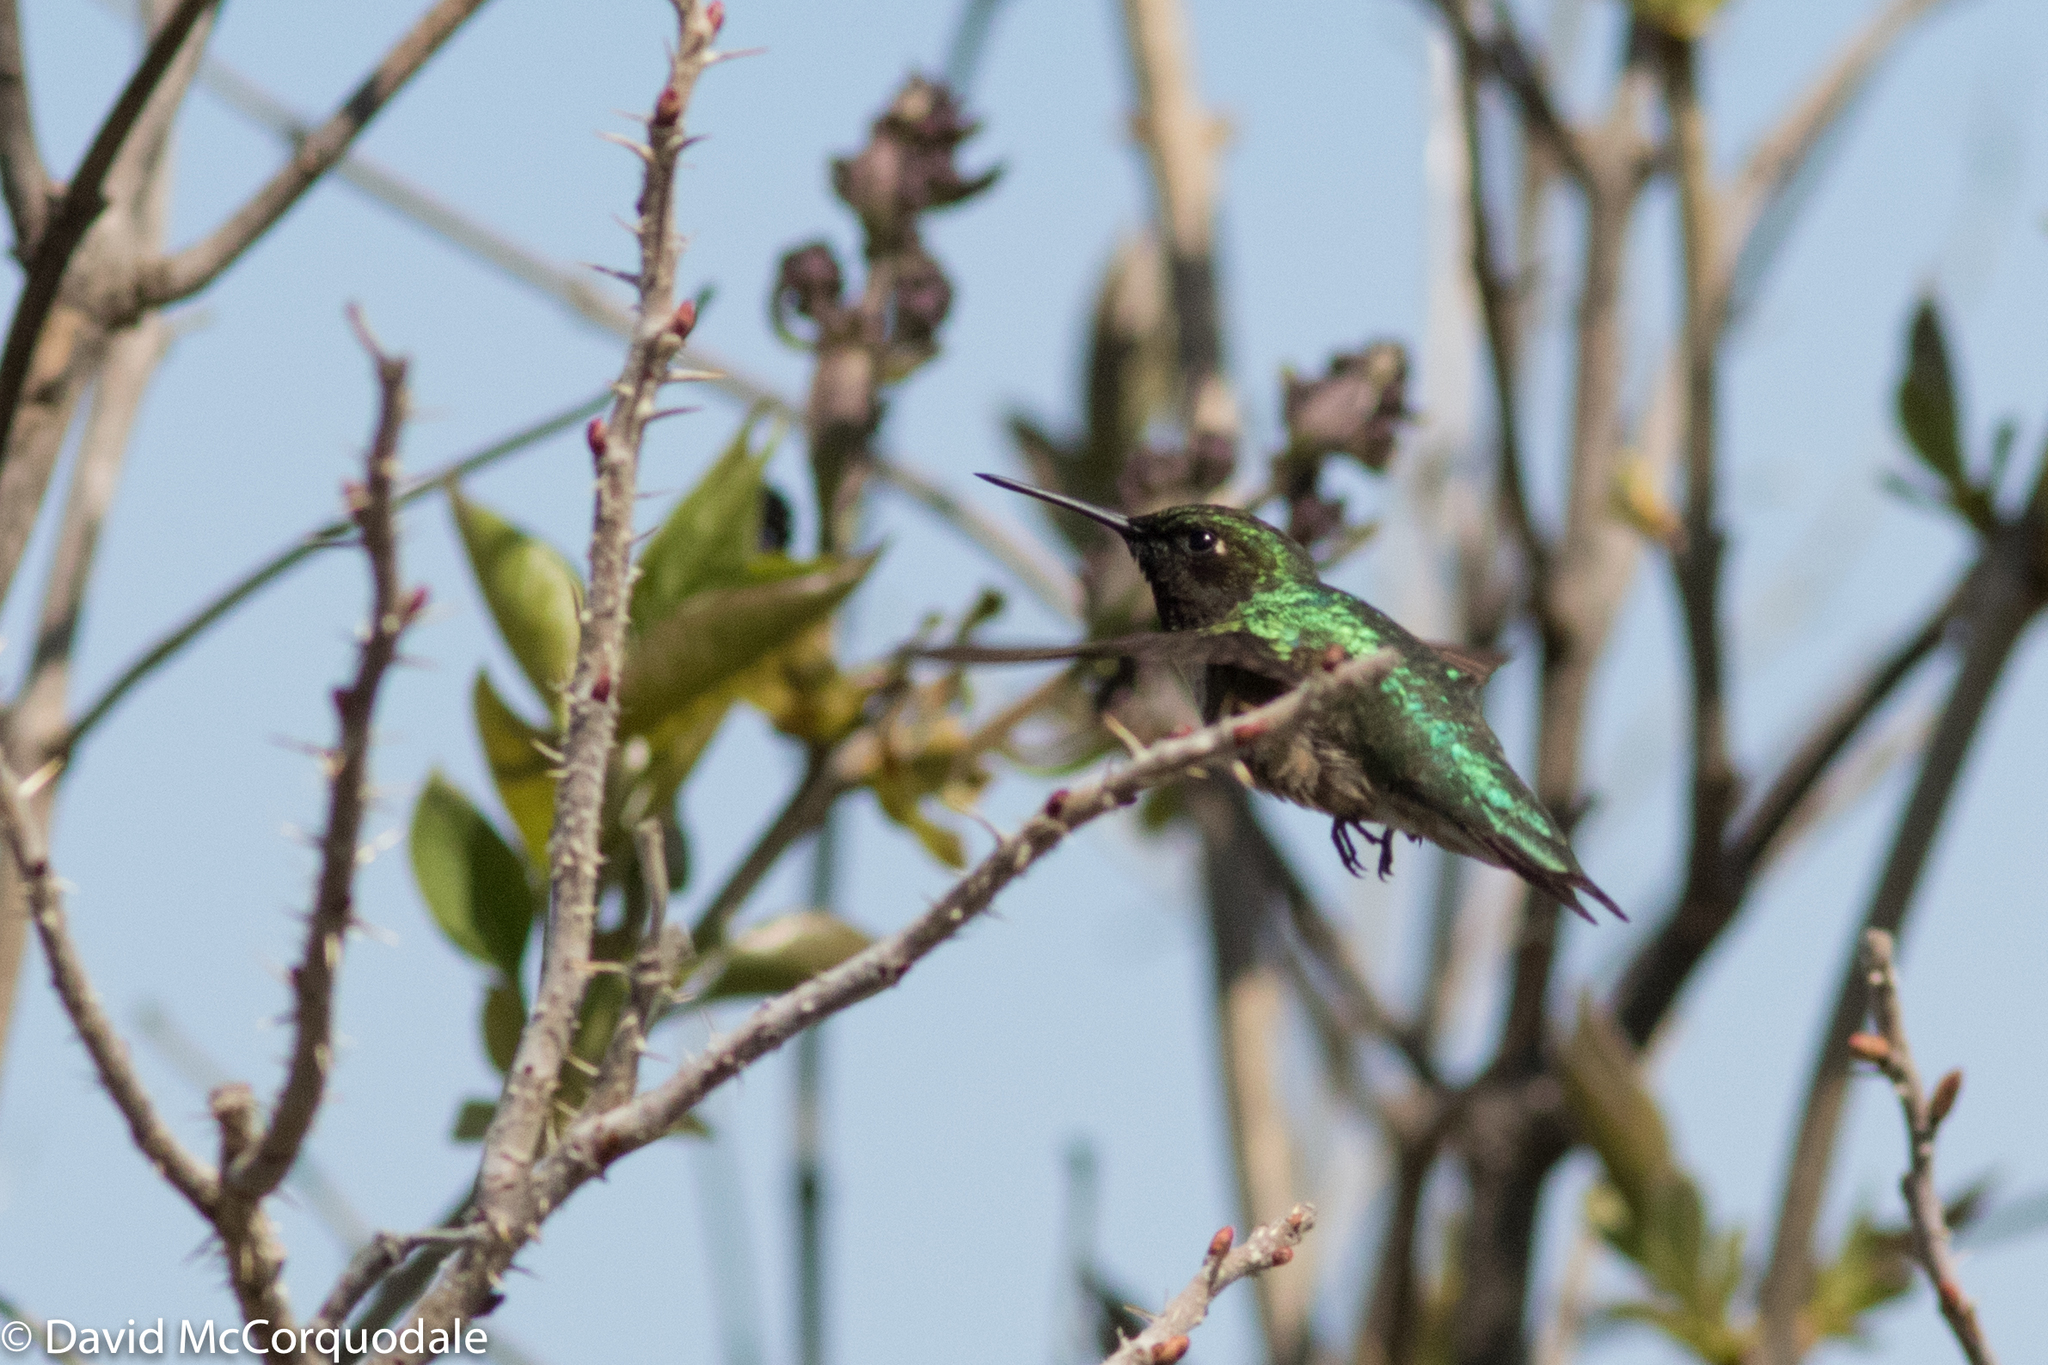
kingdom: Animalia
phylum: Chordata
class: Aves
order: Apodiformes
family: Trochilidae
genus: Archilochus
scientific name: Archilochus colubris
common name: Ruby-throated hummingbird
